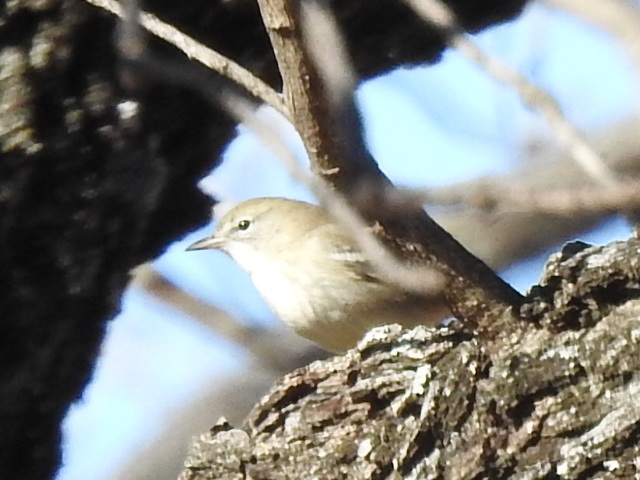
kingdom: Animalia
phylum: Chordata
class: Aves
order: Passeriformes
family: Parulidae
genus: Setophaga
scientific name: Setophaga pinus
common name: Pine warbler
